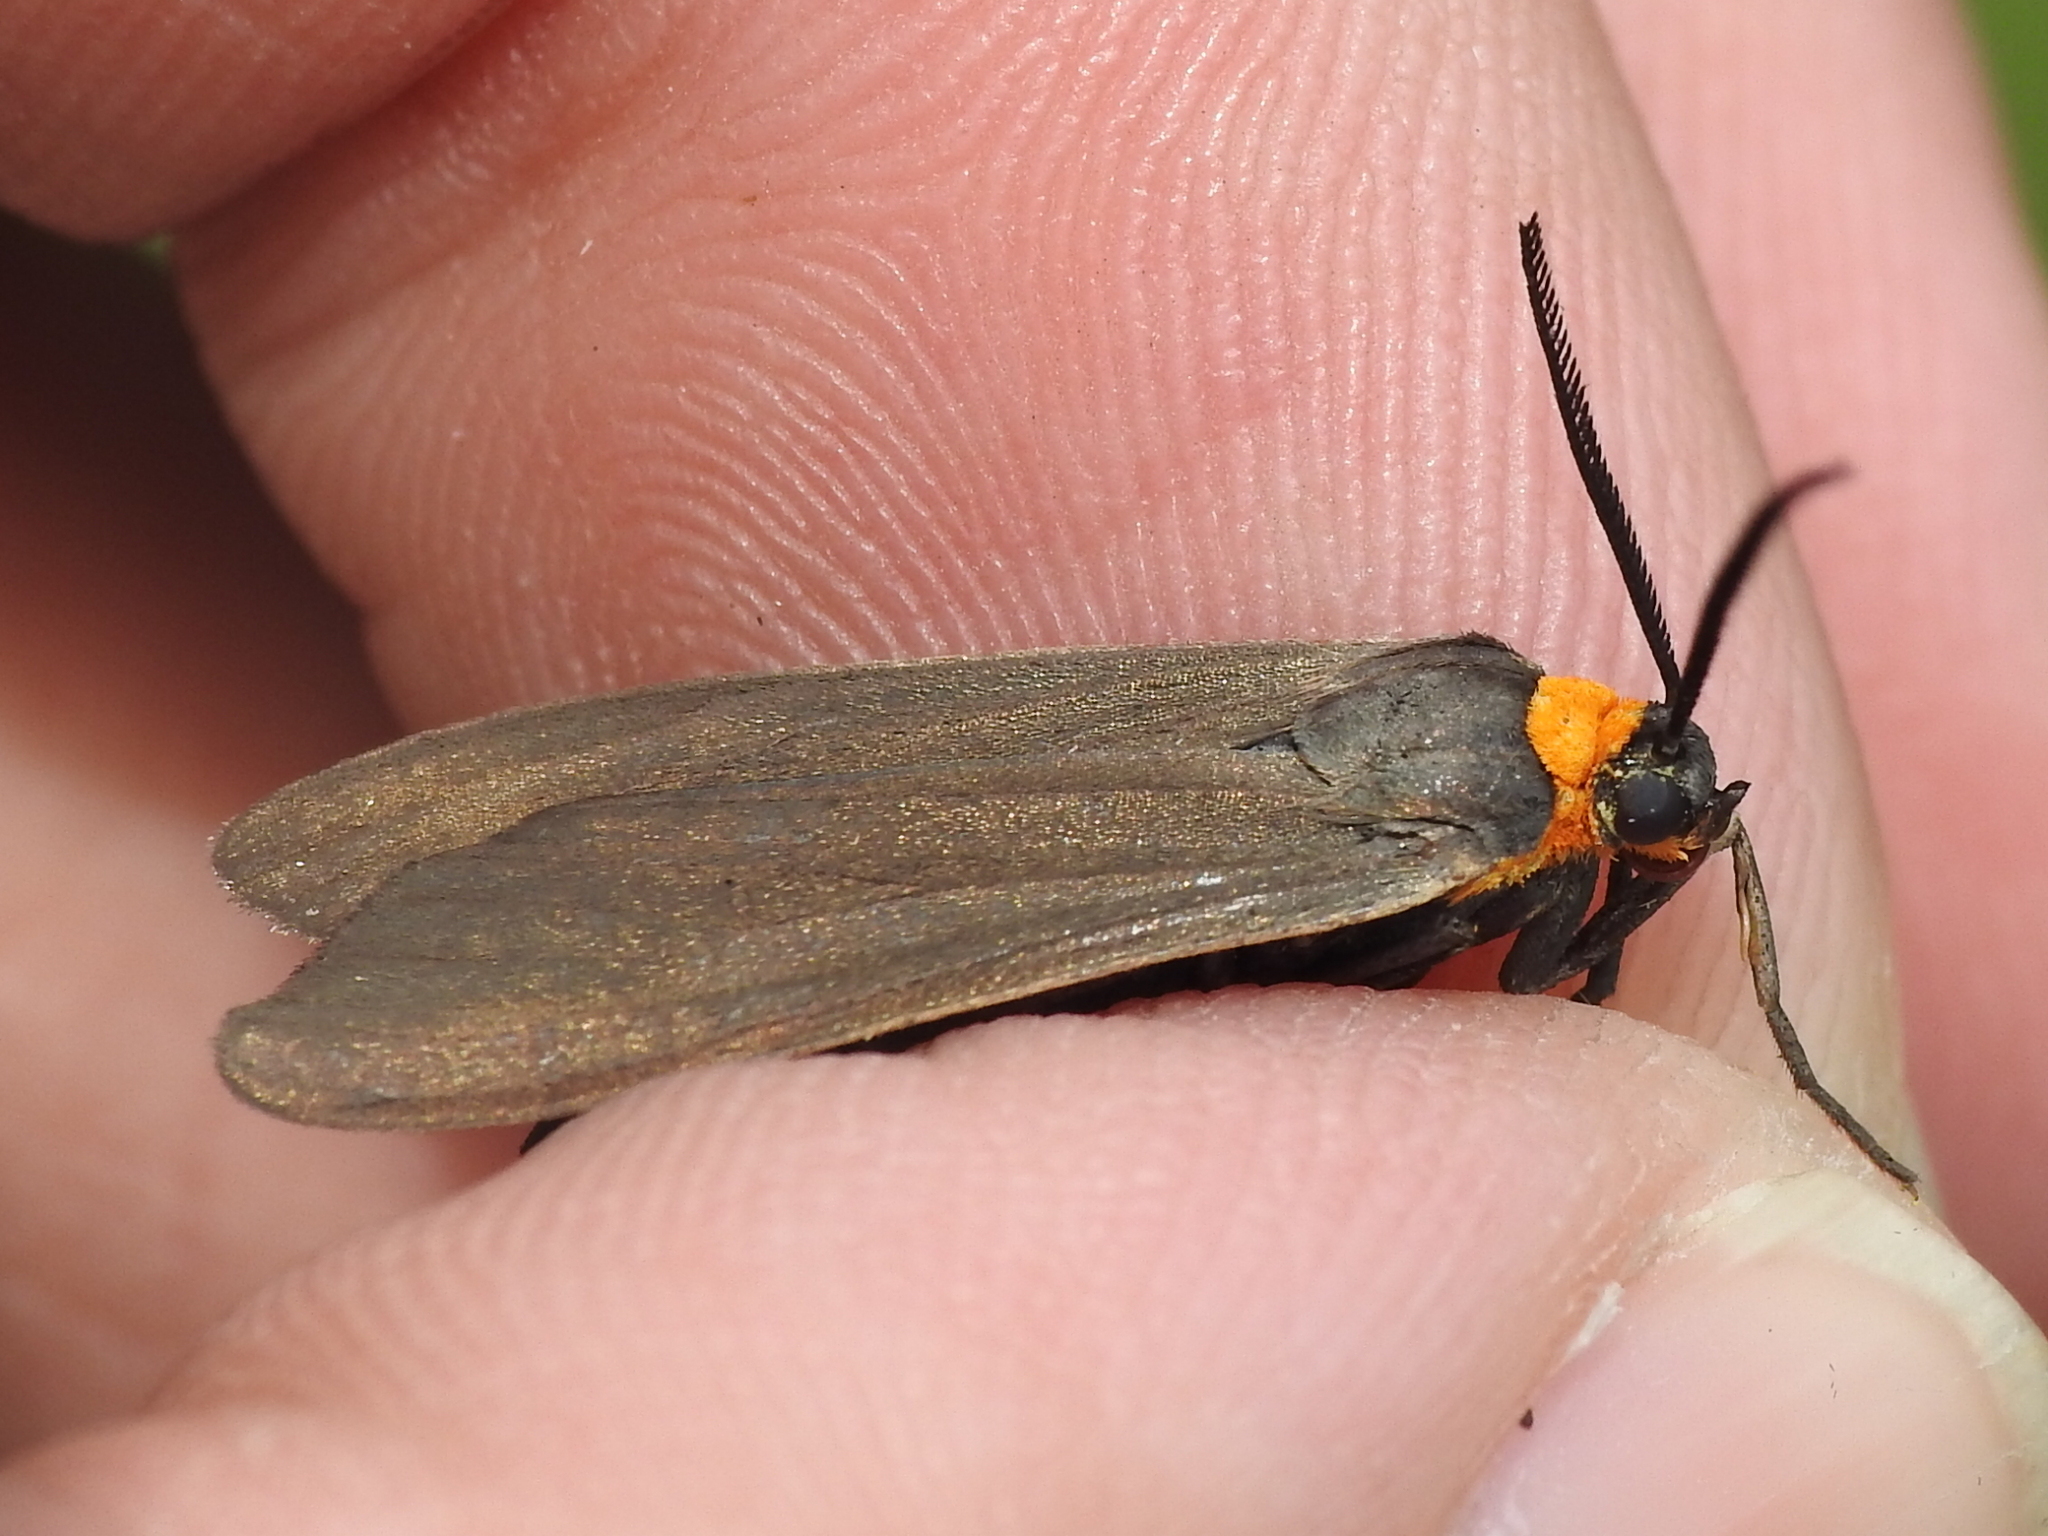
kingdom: Animalia
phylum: Arthropoda
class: Insecta
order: Lepidoptera
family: Erebidae
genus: Cisseps
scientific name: Cisseps fulvicollis
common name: Yellow-collared scape moth
